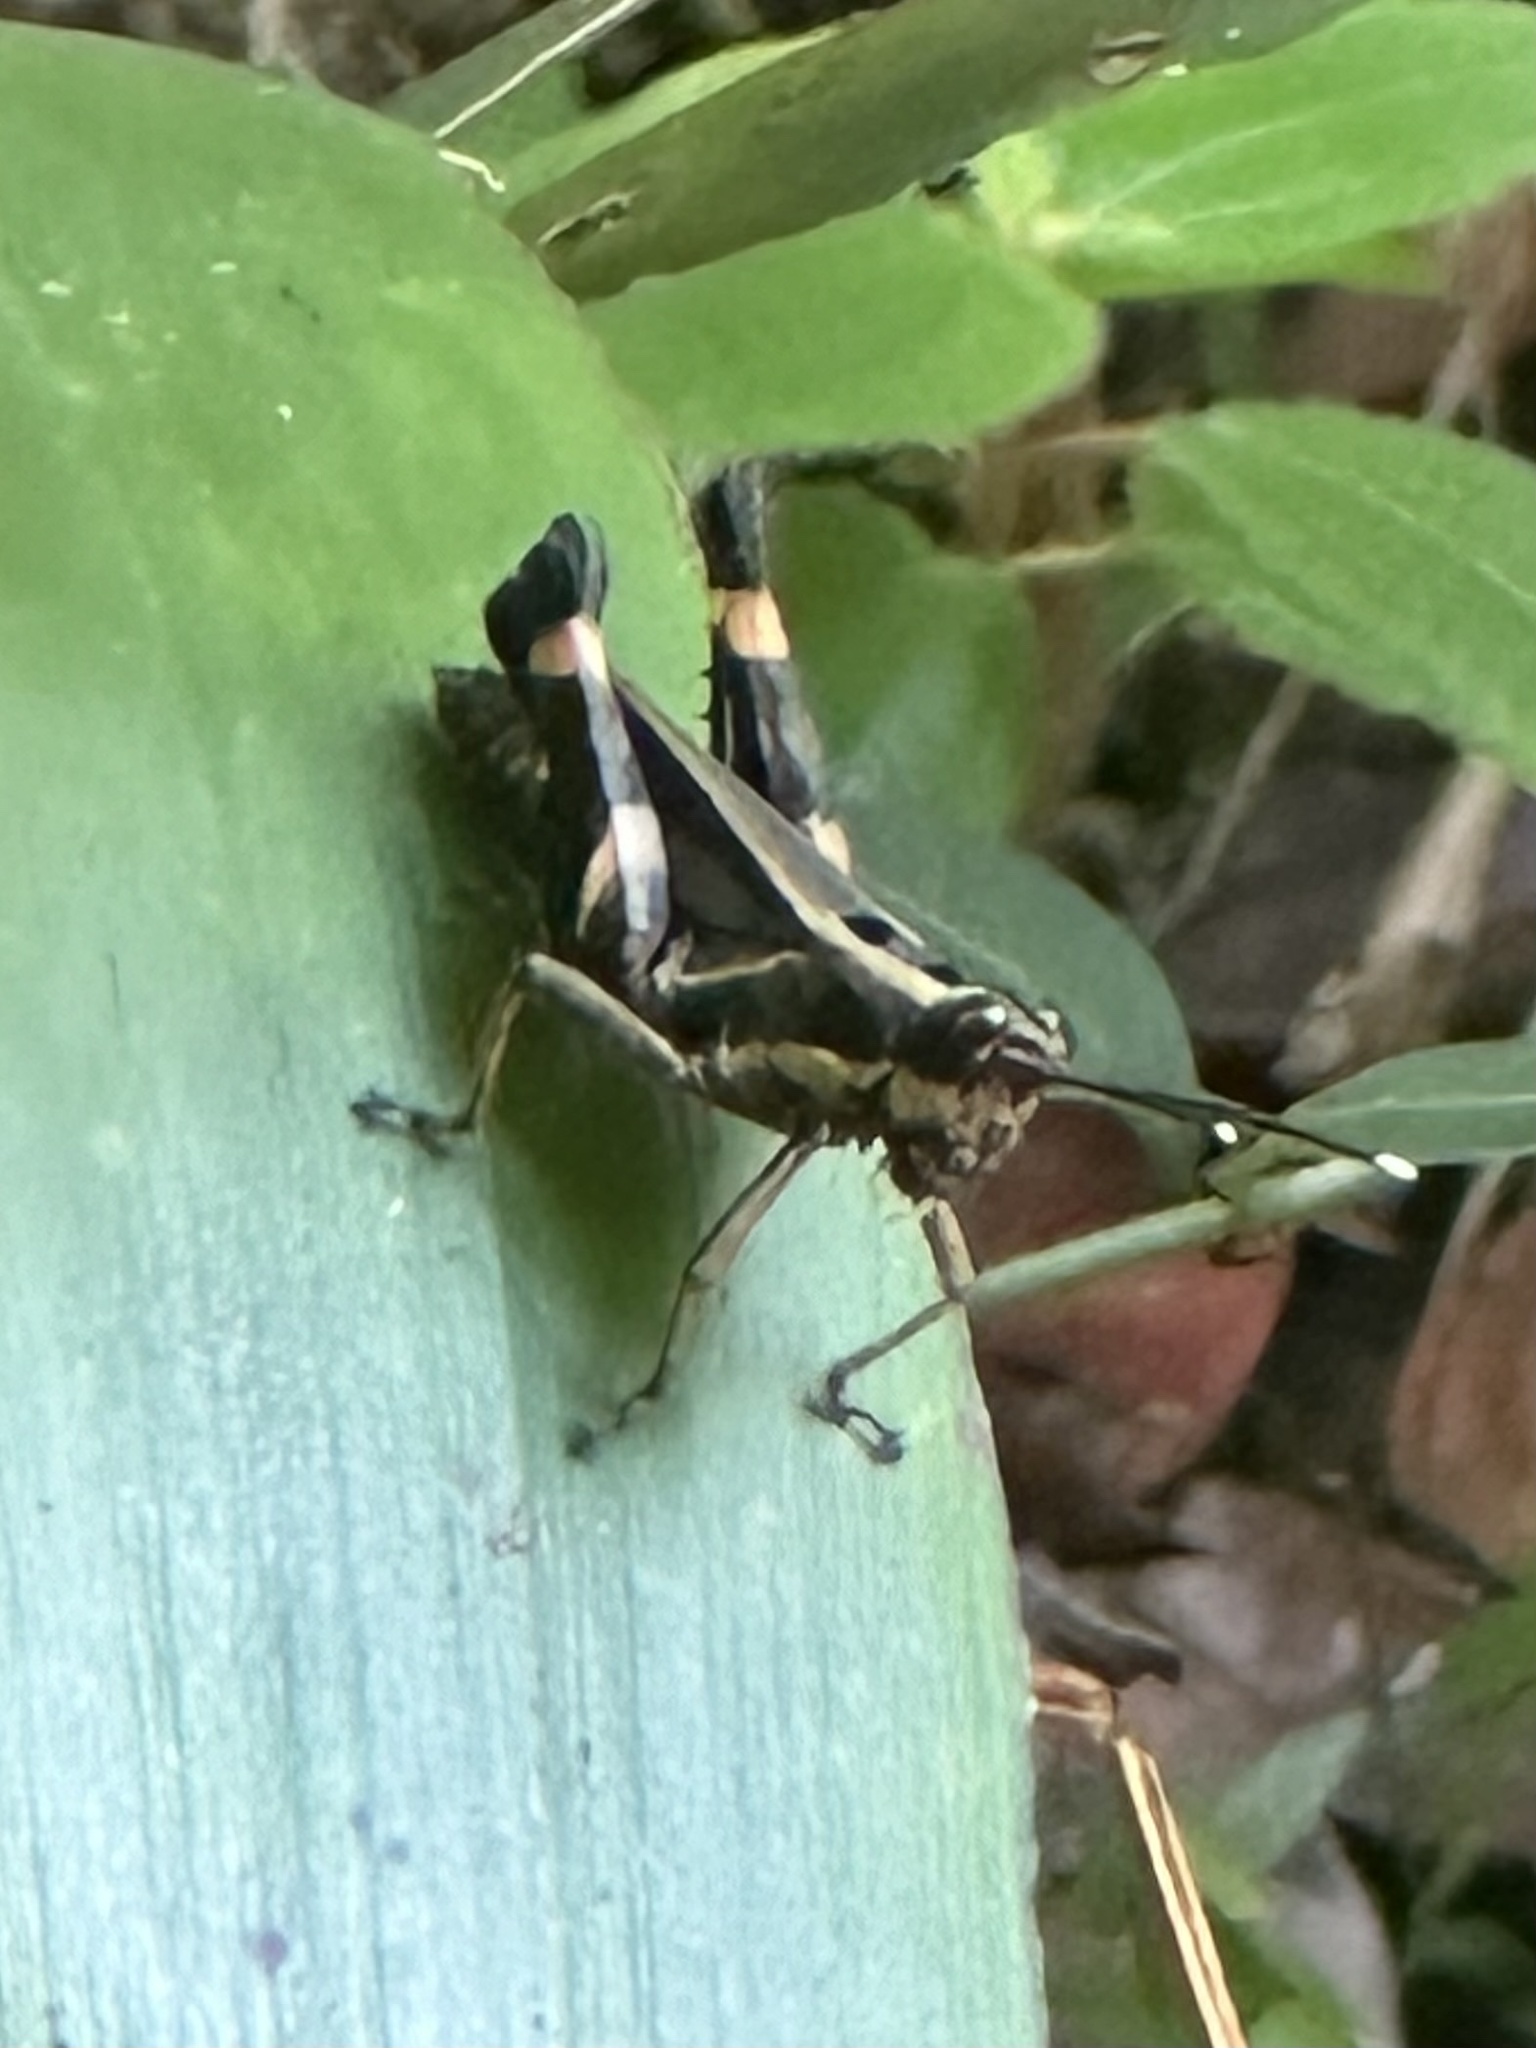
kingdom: Animalia
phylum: Arthropoda
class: Insecta
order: Orthoptera
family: Acrididae
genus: Traulia
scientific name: Traulia azureipennis
